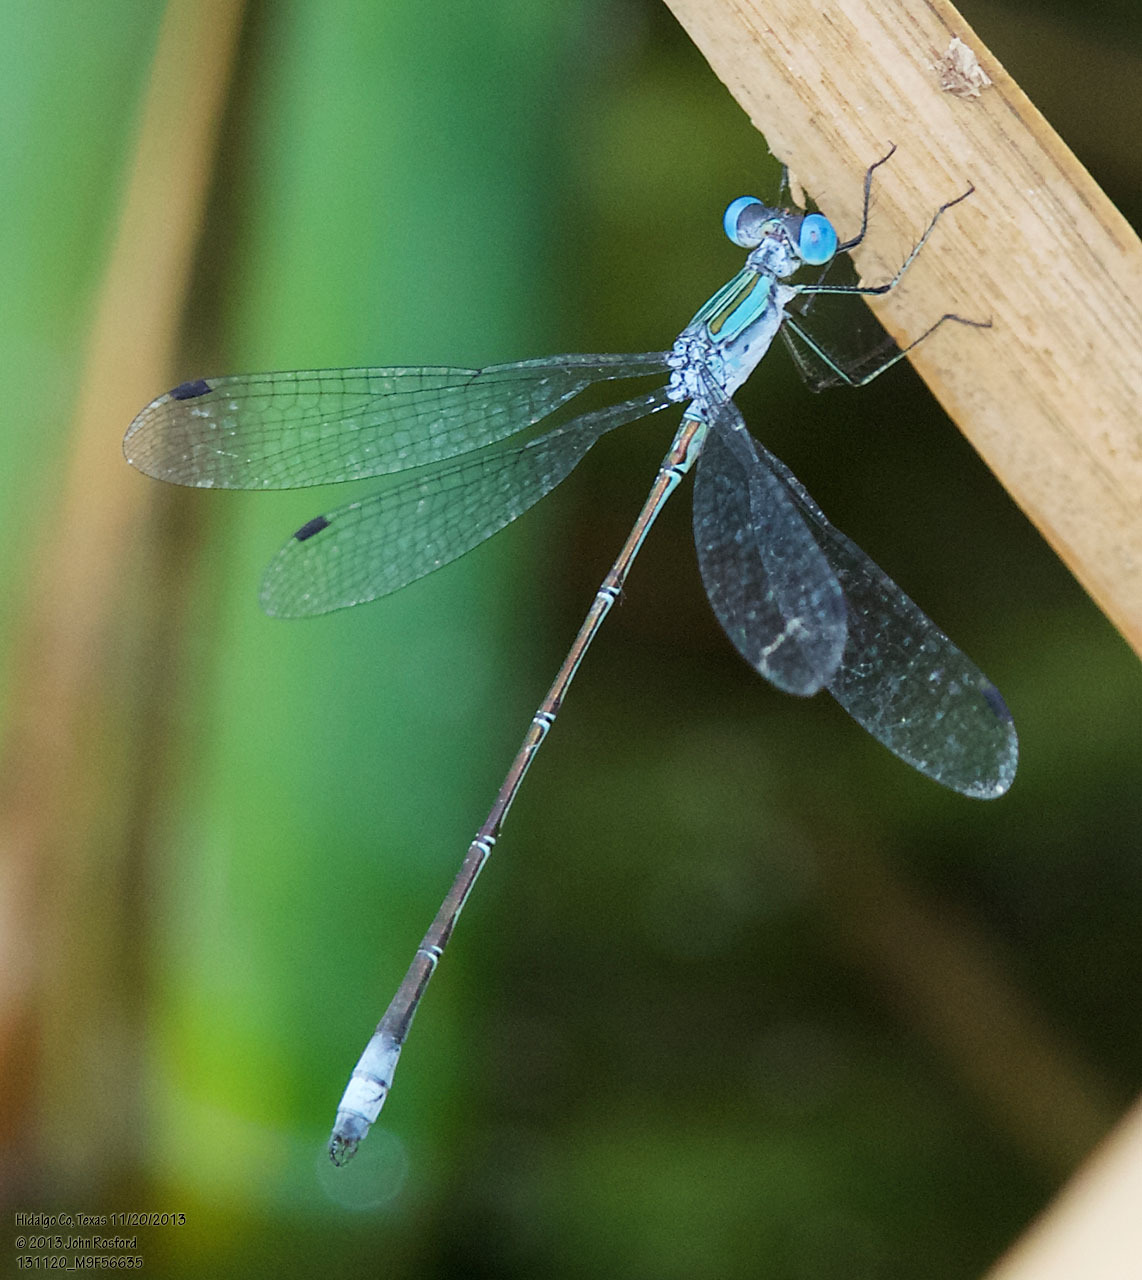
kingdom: Animalia
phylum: Arthropoda
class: Insecta
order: Odonata
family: Lestidae
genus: Lestes
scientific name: Lestes forficula
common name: Rainpool spreadwing
